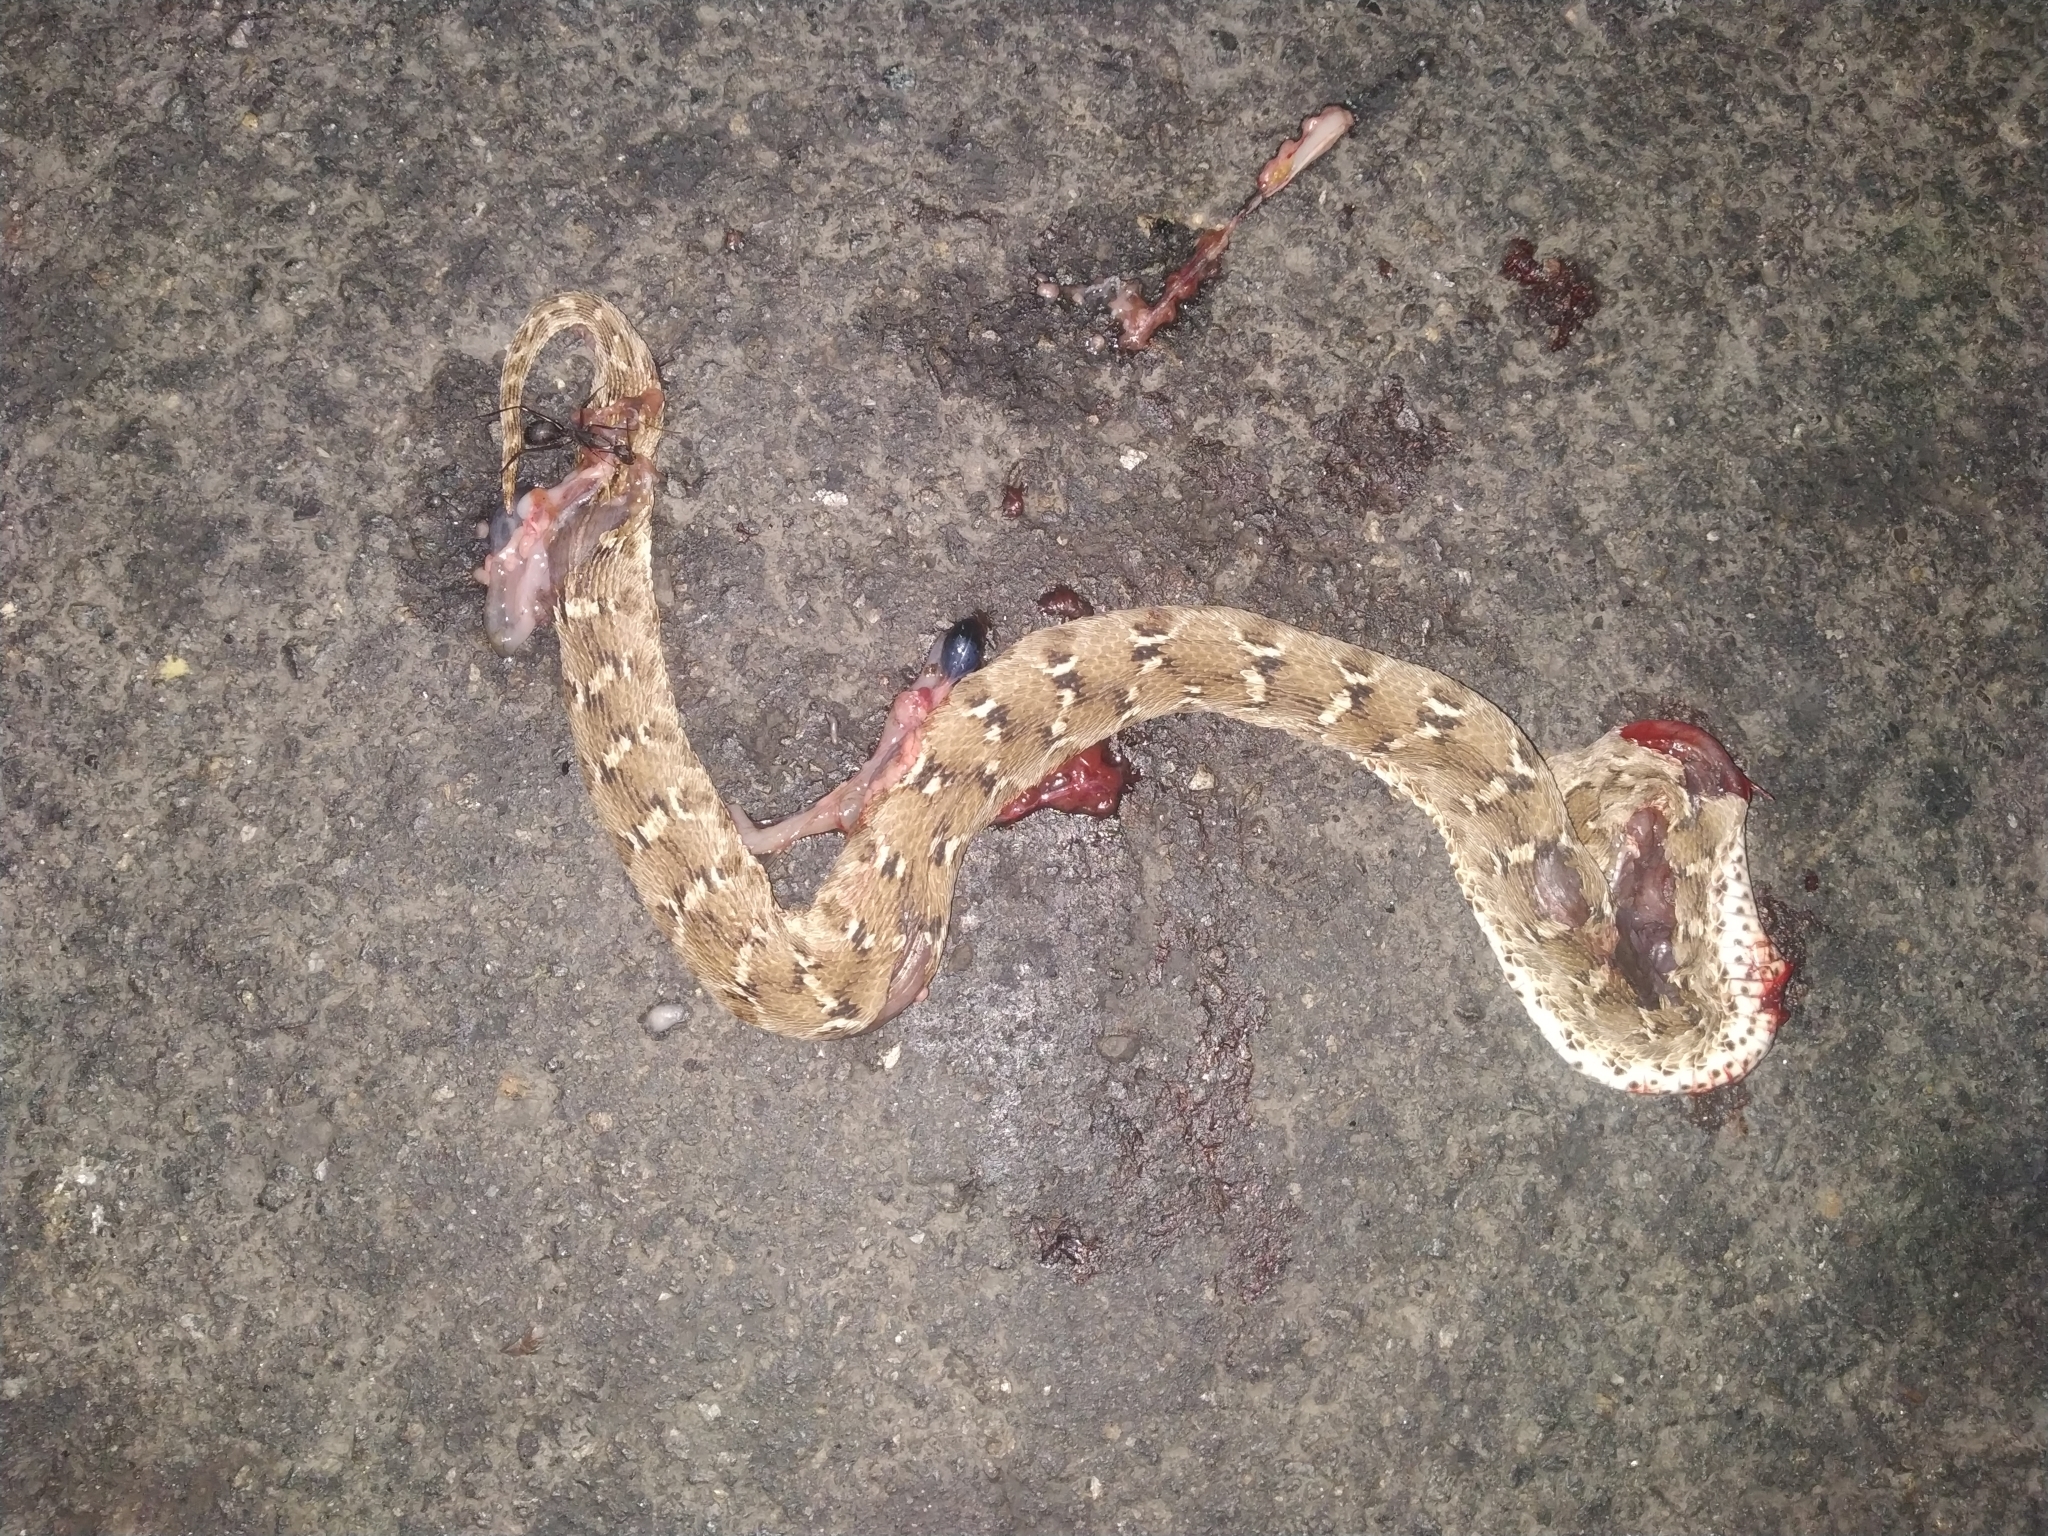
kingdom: Animalia
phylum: Chordata
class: Squamata
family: Viperidae
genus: Echis
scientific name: Echis carinatus
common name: Saw-scaled viper
